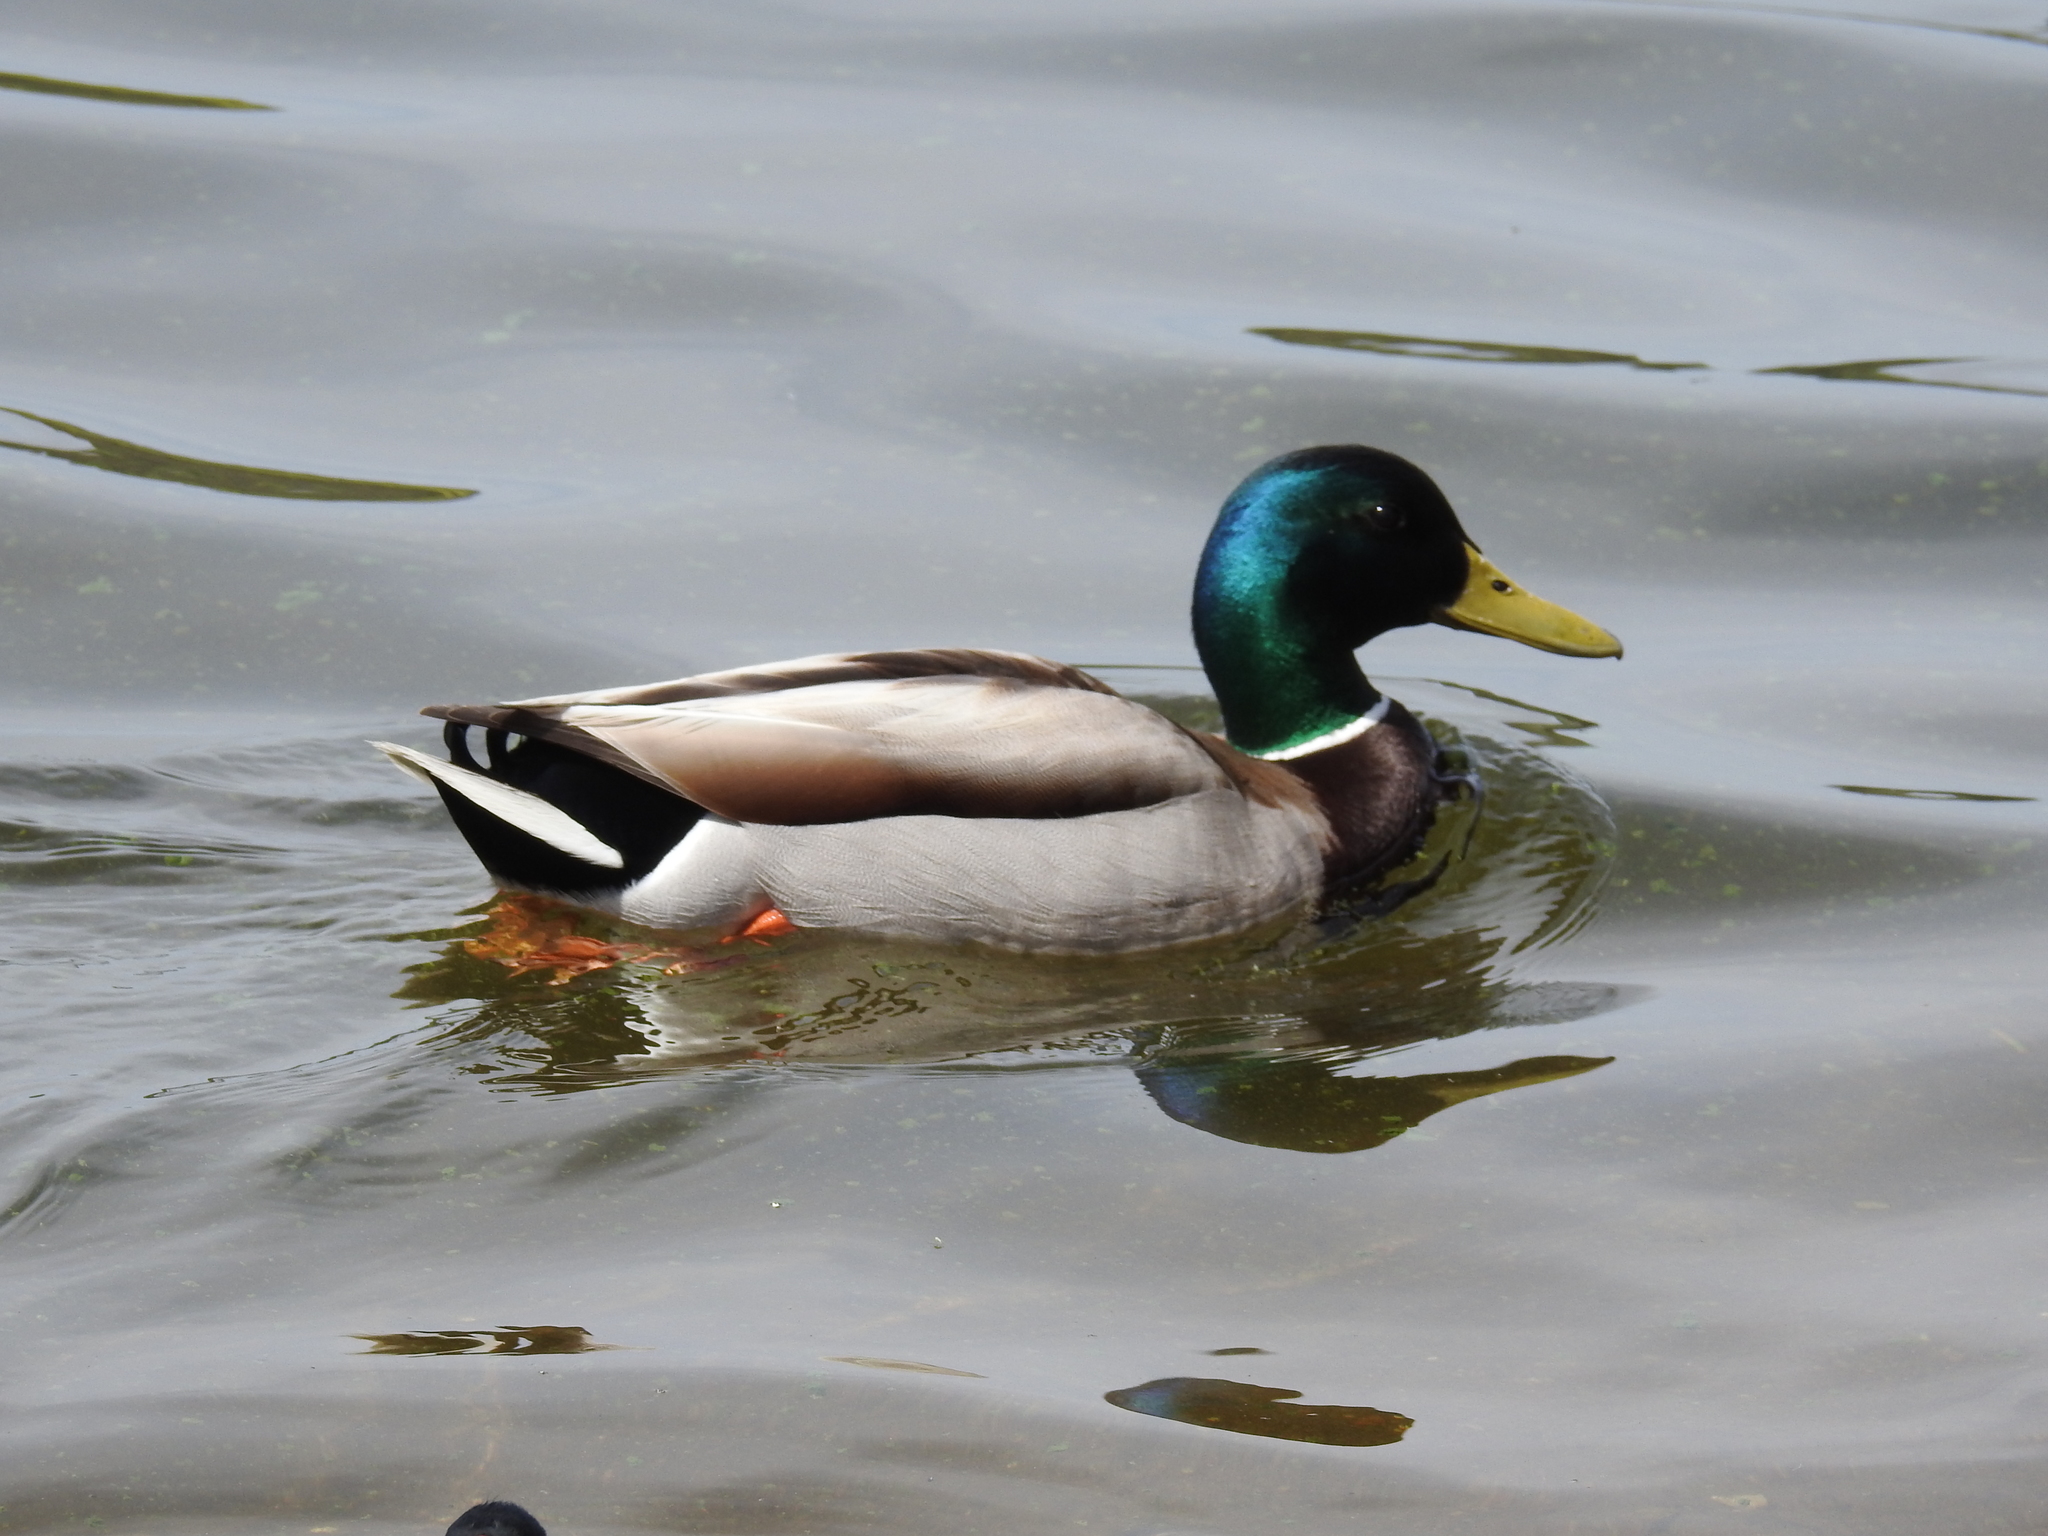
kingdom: Animalia
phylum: Chordata
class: Aves
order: Anseriformes
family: Anatidae
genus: Anas
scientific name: Anas platyrhynchos
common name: Mallard
